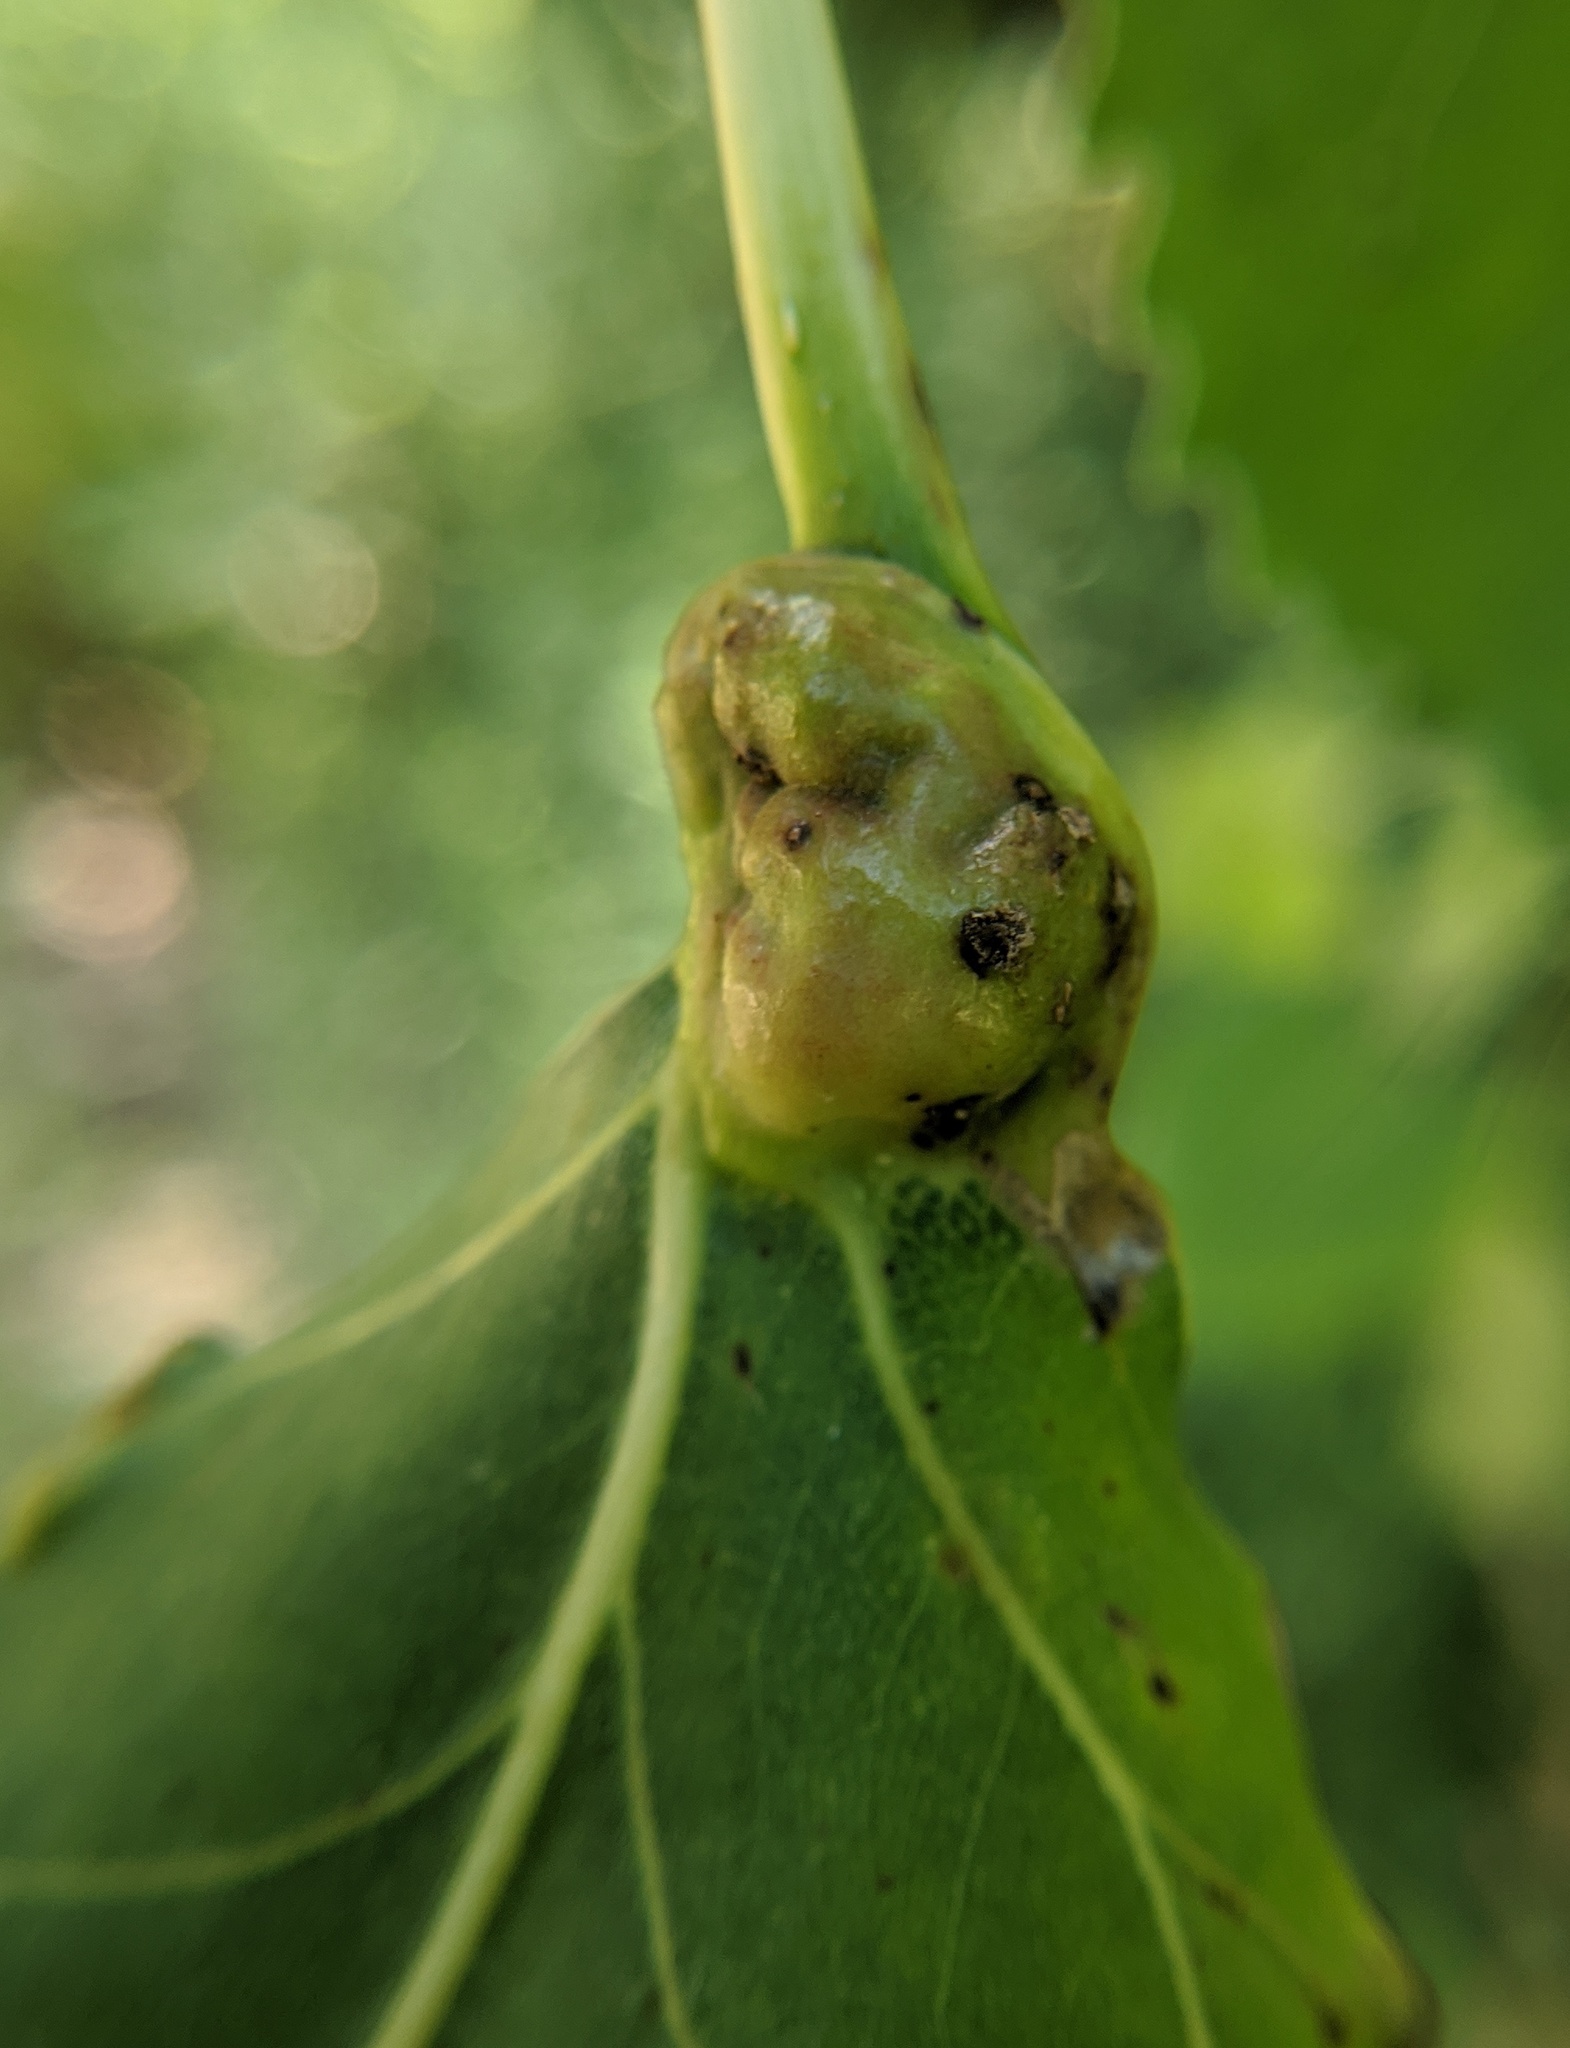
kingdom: Animalia
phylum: Arthropoda
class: Insecta
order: Hemiptera
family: Aphididae
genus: Pemphigus
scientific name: Pemphigus populicaulis
